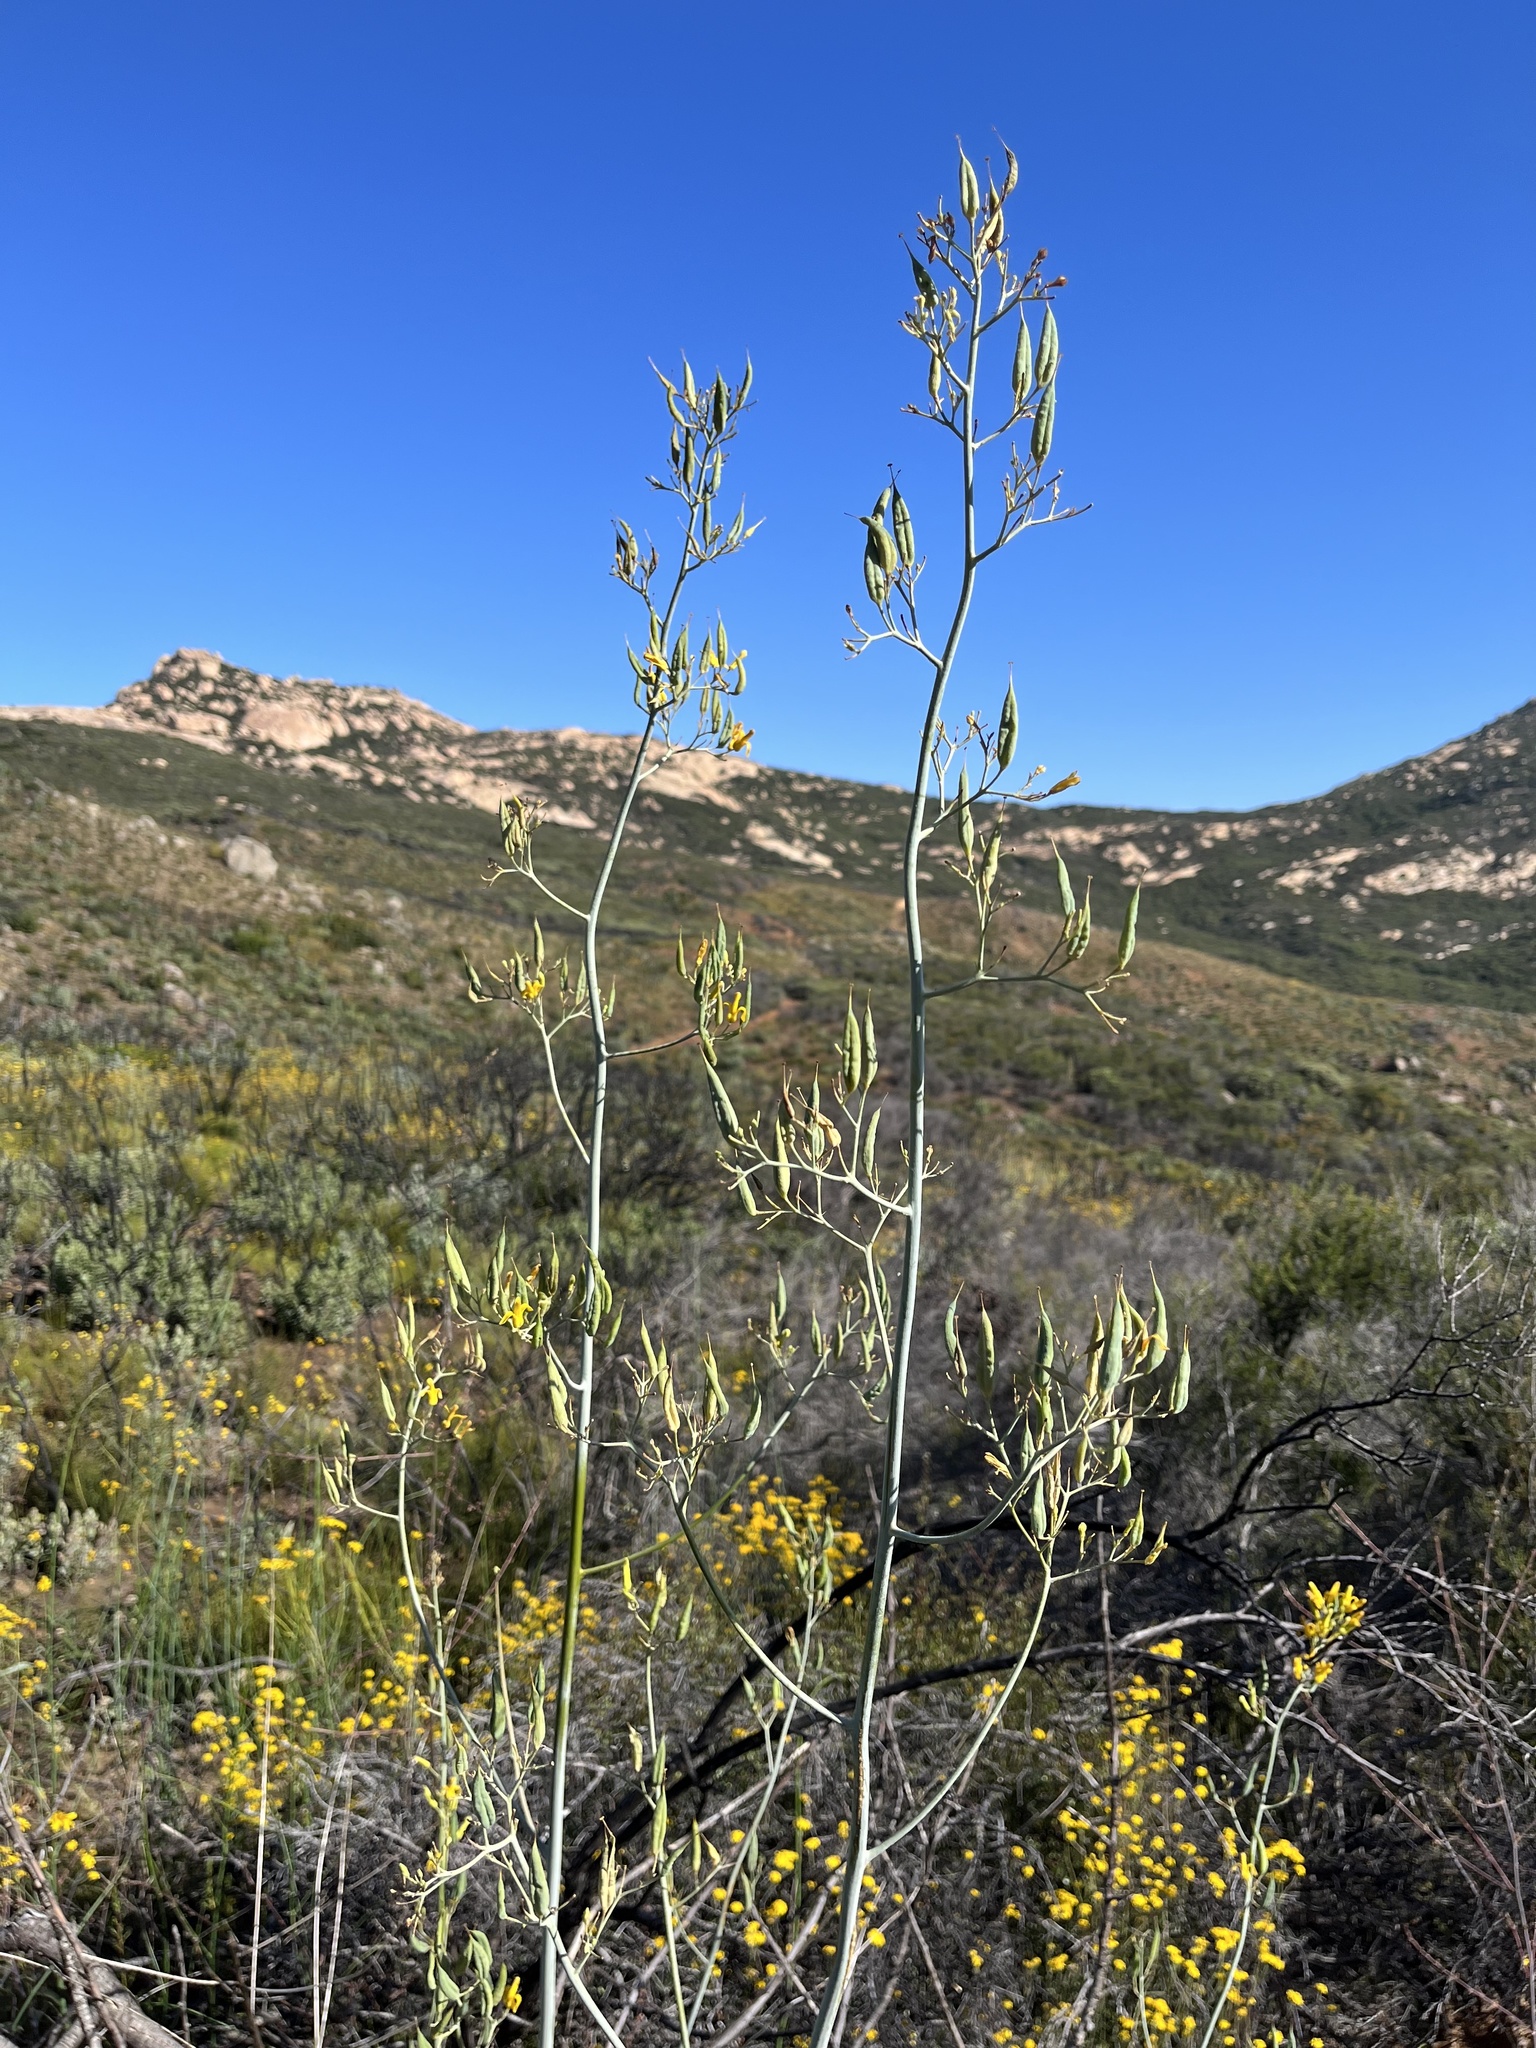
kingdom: Plantae
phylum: Tracheophyta
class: Magnoliopsida
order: Ranunculales
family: Papaveraceae
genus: Ehrendorferia
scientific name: Ehrendorferia chrysantha
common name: Golden eardrops
